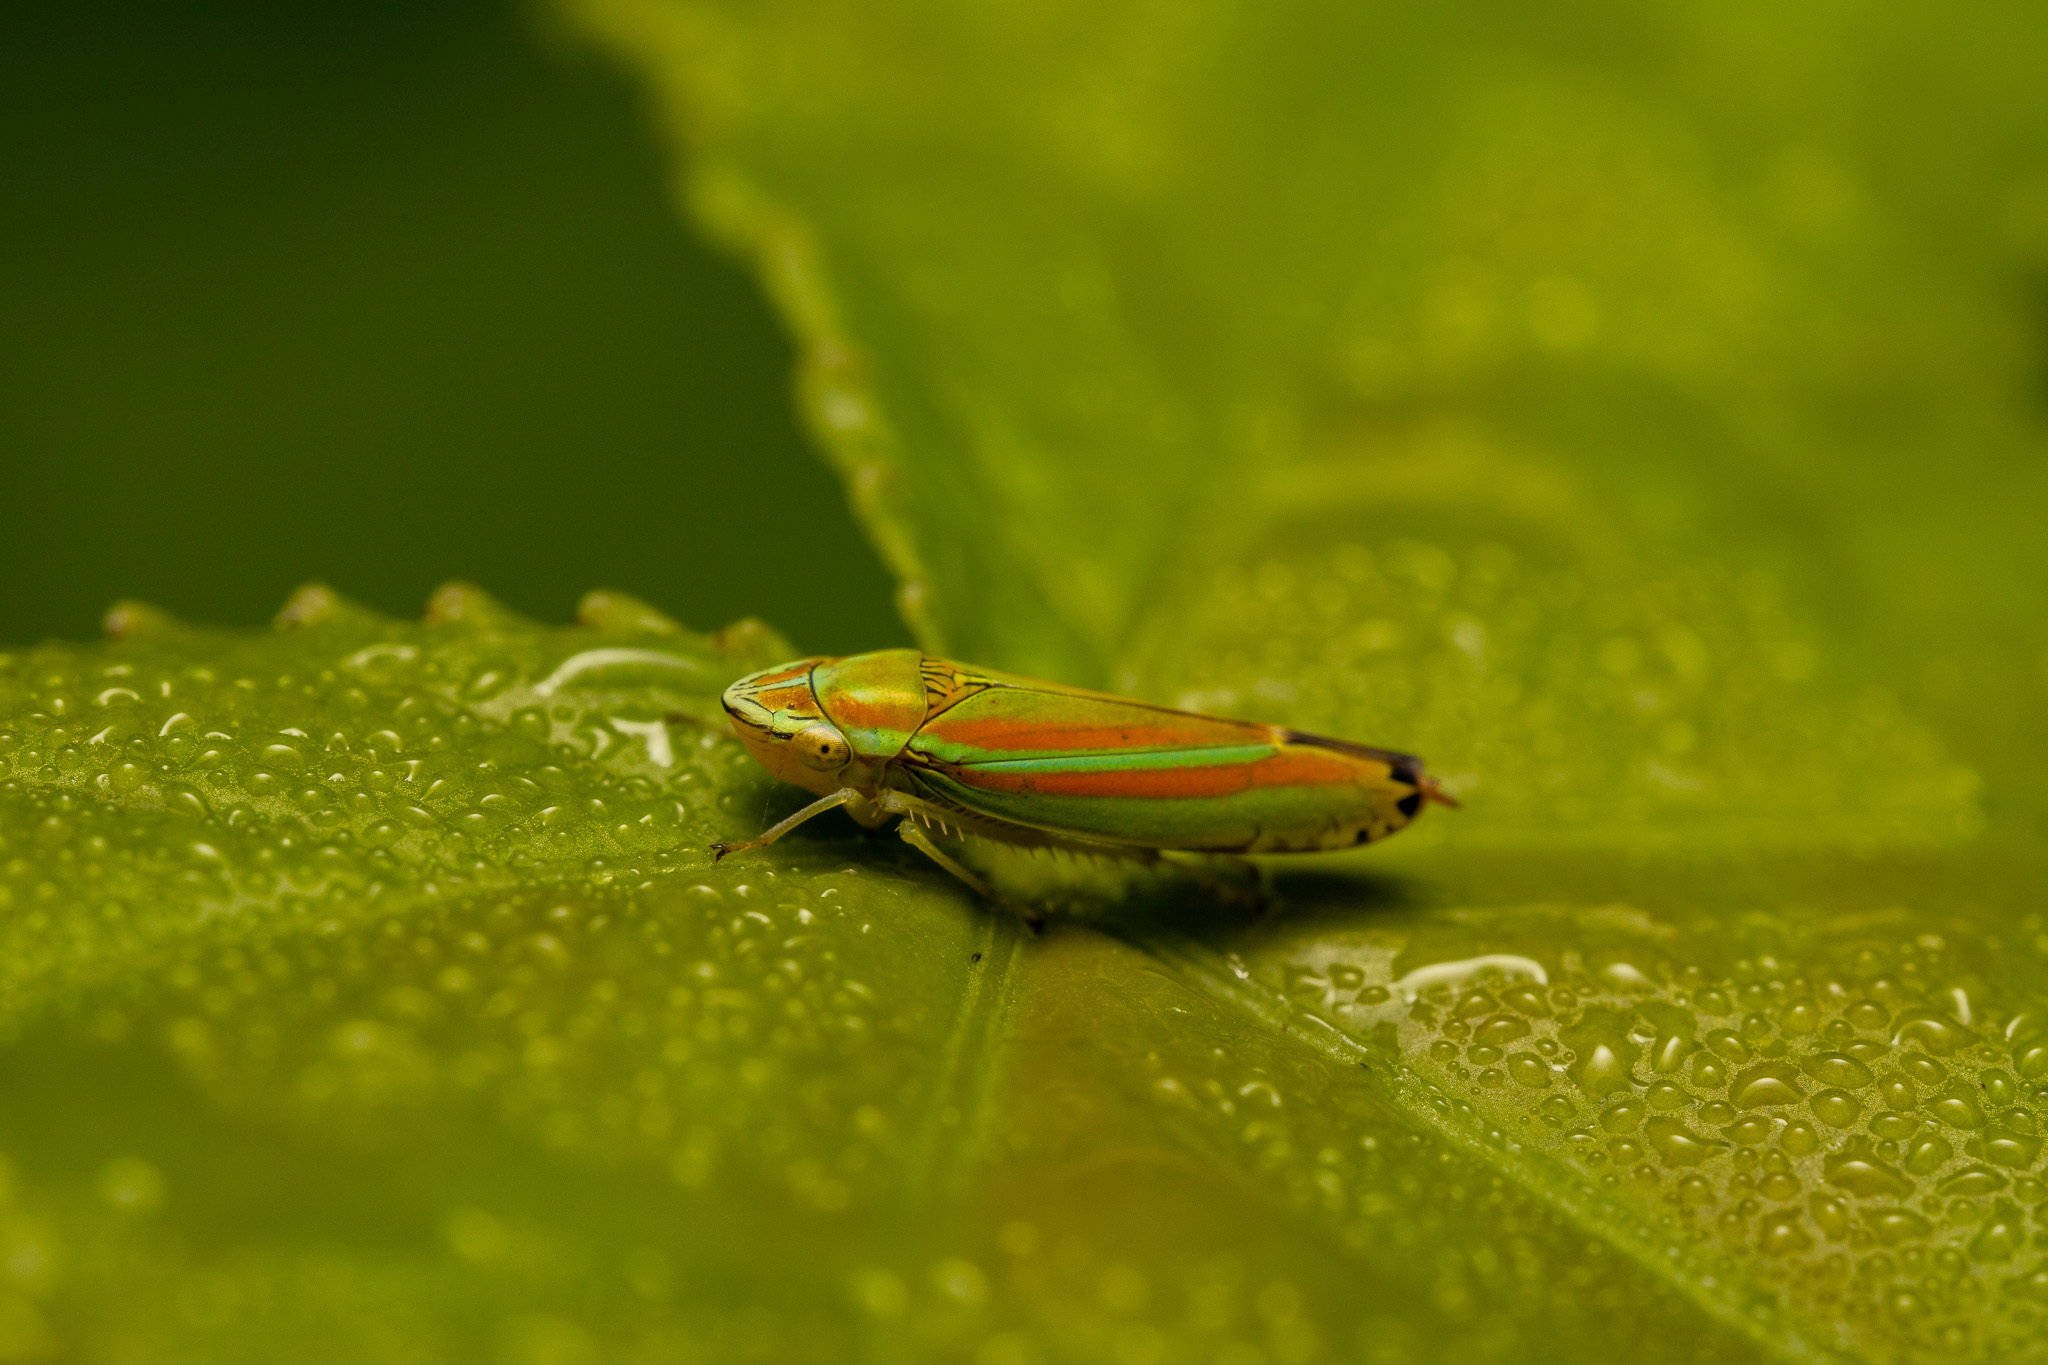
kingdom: Animalia
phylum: Arthropoda
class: Insecta
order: Hemiptera
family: Cicadellidae
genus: Graphocephala
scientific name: Graphocephala versuta
